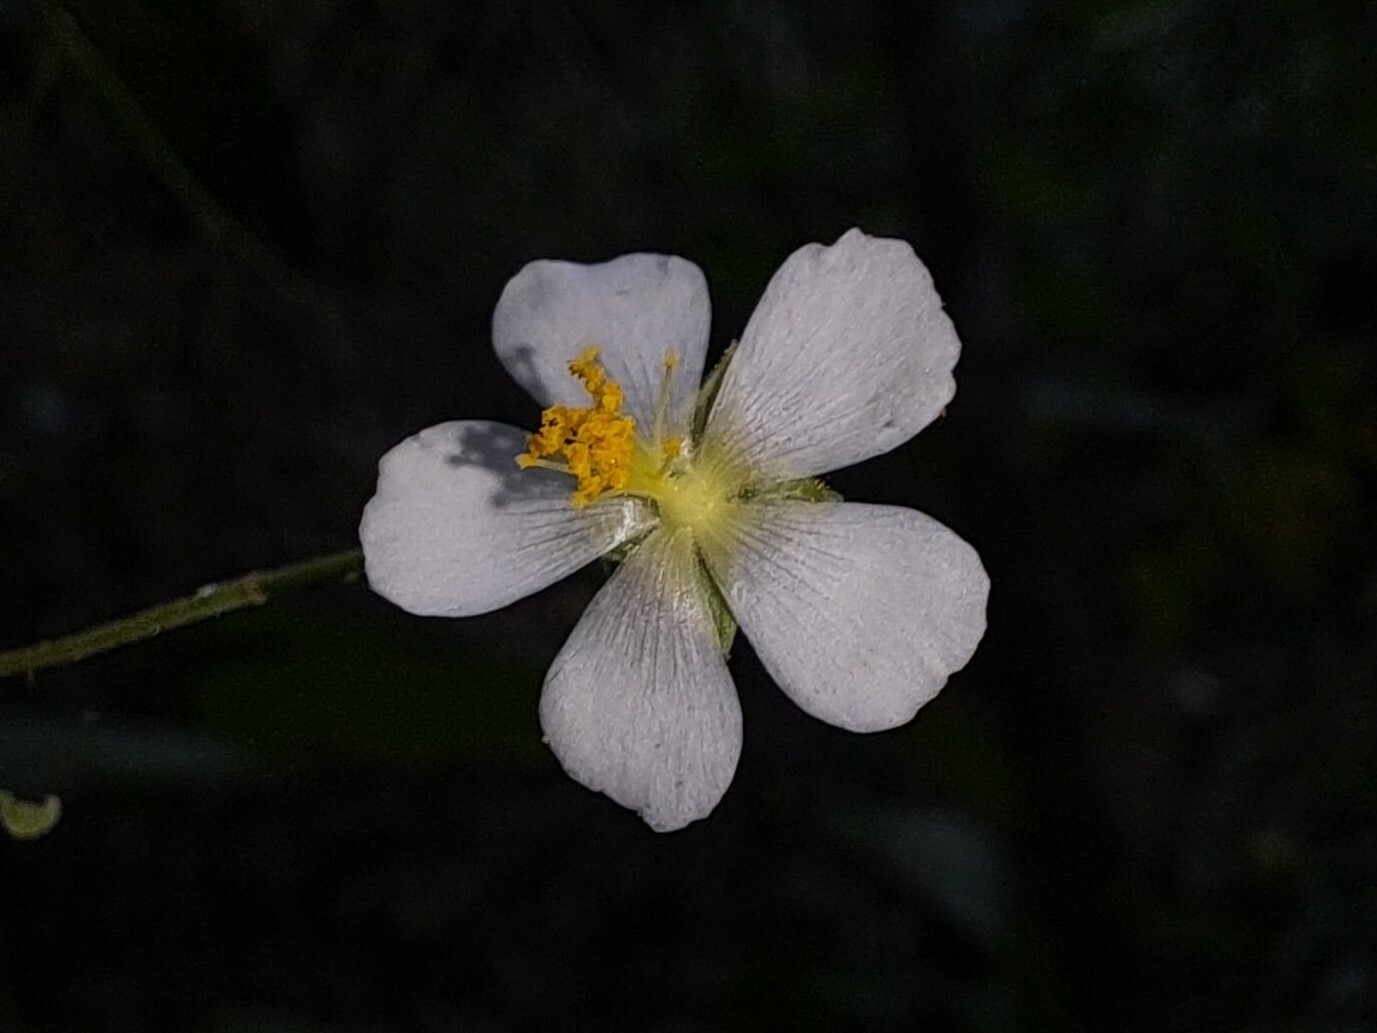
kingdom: Plantae
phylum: Tracheophyta
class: Magnoliopsida
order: Malvales
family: Malvaceae
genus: Wissadula
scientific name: Wissadula divergens
